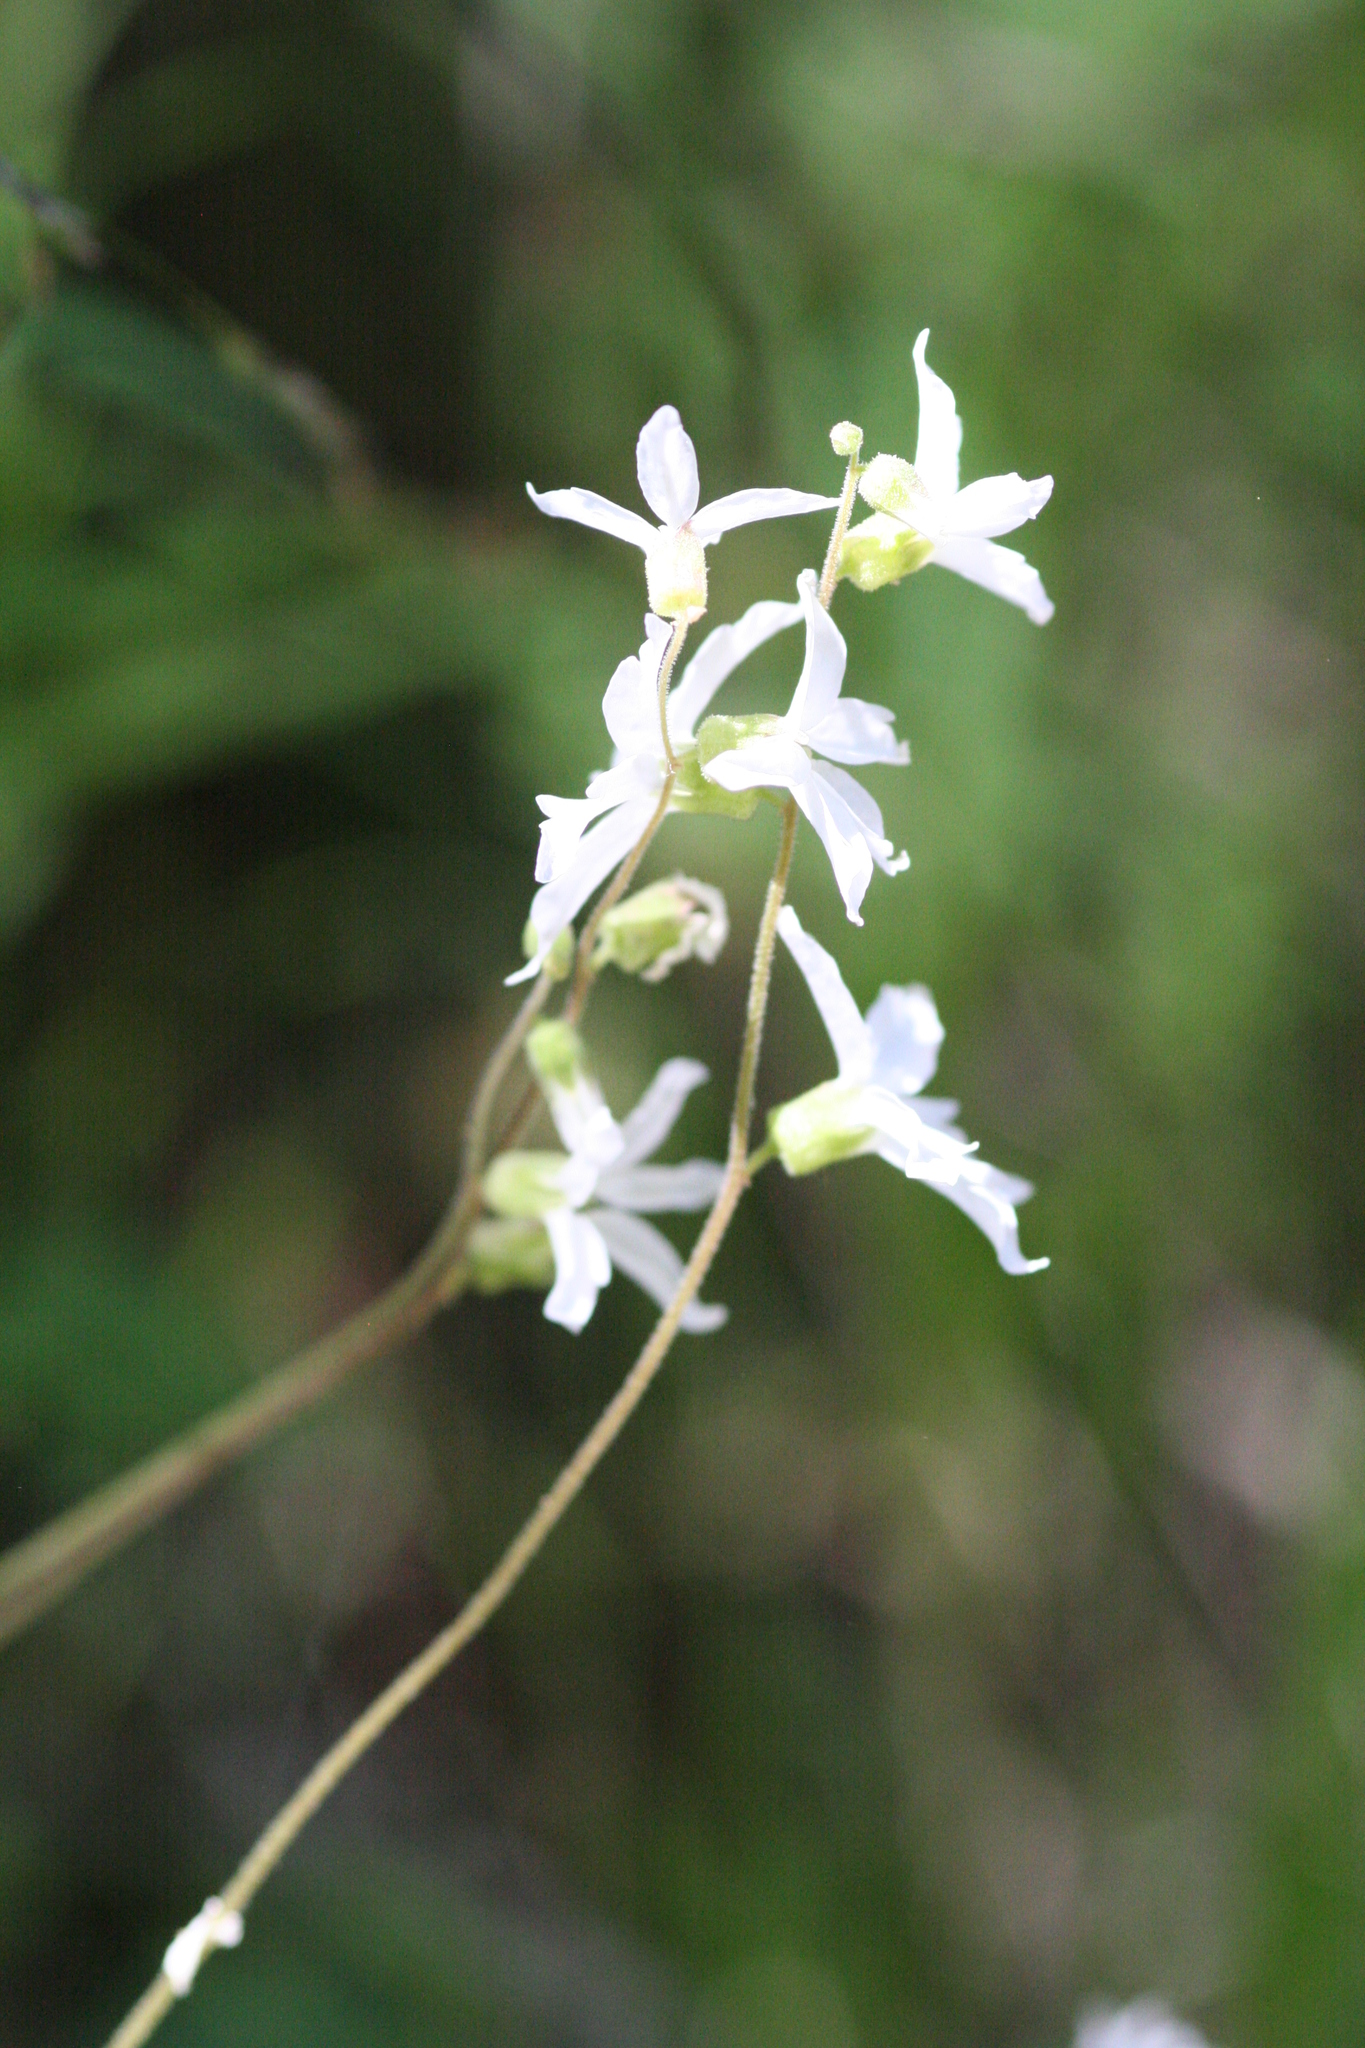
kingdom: Plantae
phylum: Tracheophyta
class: Magnoliopsida
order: Saxifragales
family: Saxifragaceae
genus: Lithophragma
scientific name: Lithophragma affine
